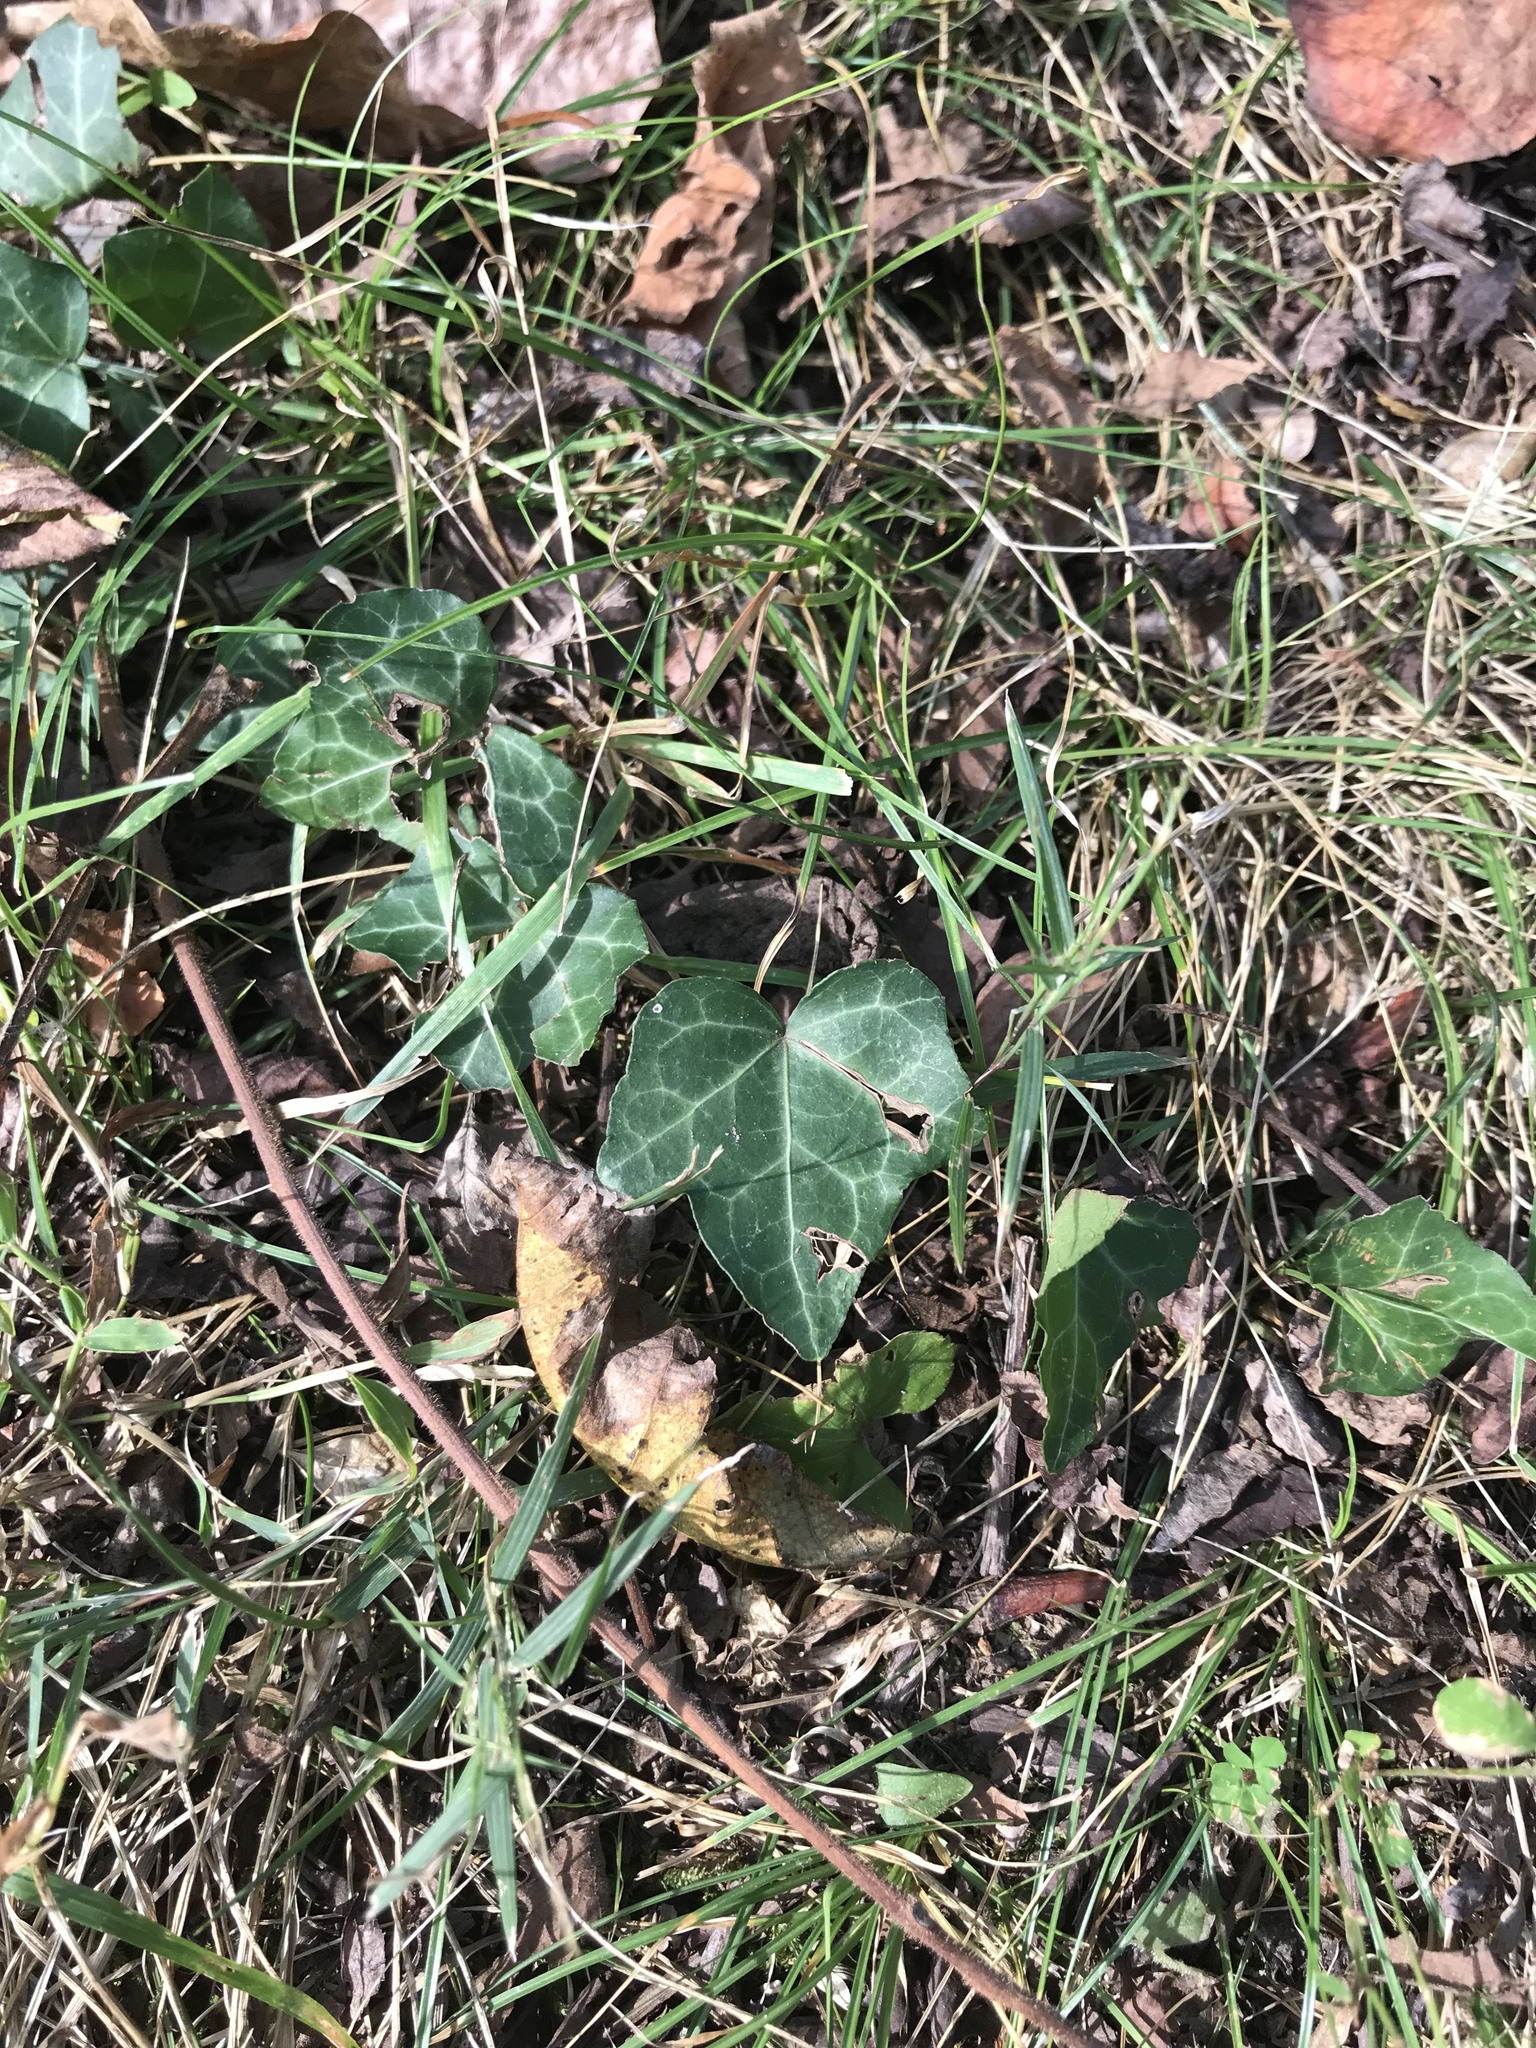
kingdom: Plantae
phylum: Tracheophyta
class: Magnoliopsida
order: Apiales
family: Araliaceae
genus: Hedera
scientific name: Hedera helix
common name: Ivy
